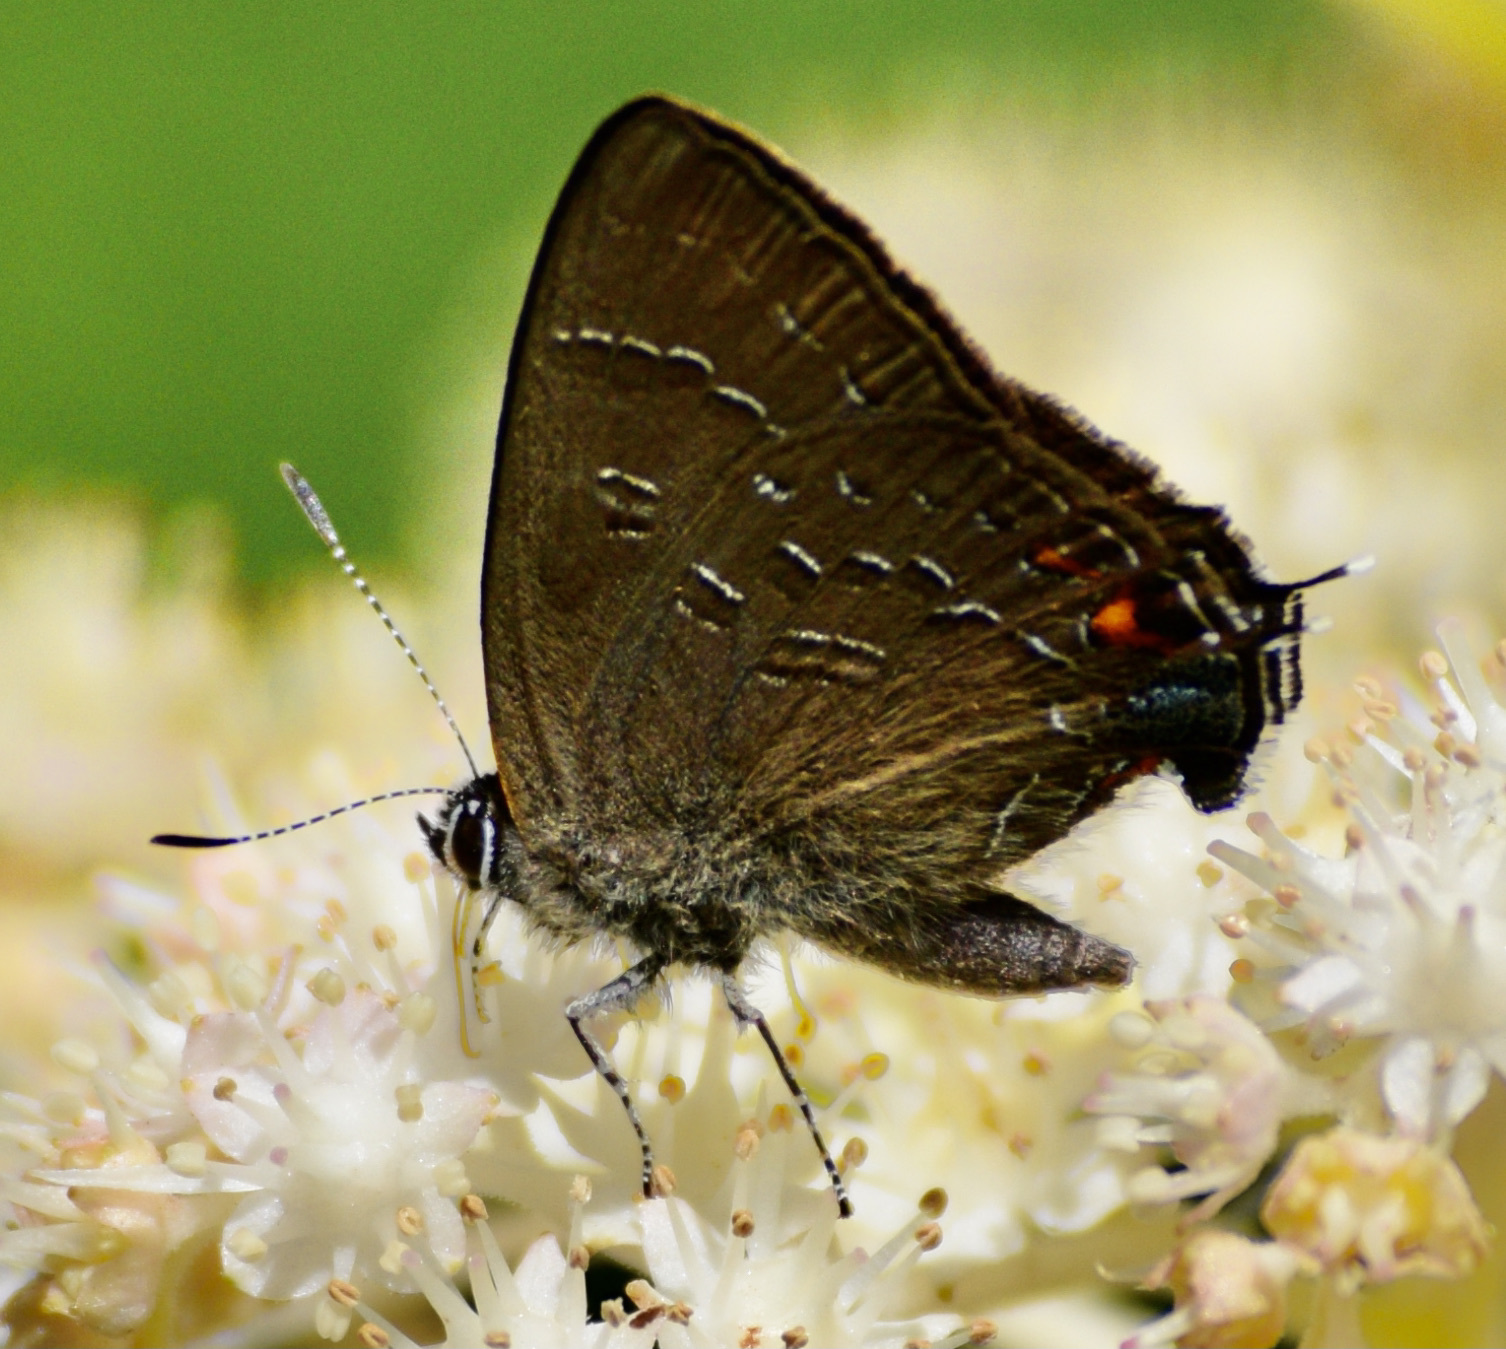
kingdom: Animalia
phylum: Arthropoda
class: Insecta
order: Lepidoptera
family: Lycaenidae
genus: Satyrium
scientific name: Satyrium calanus
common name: Banded hairstreak
